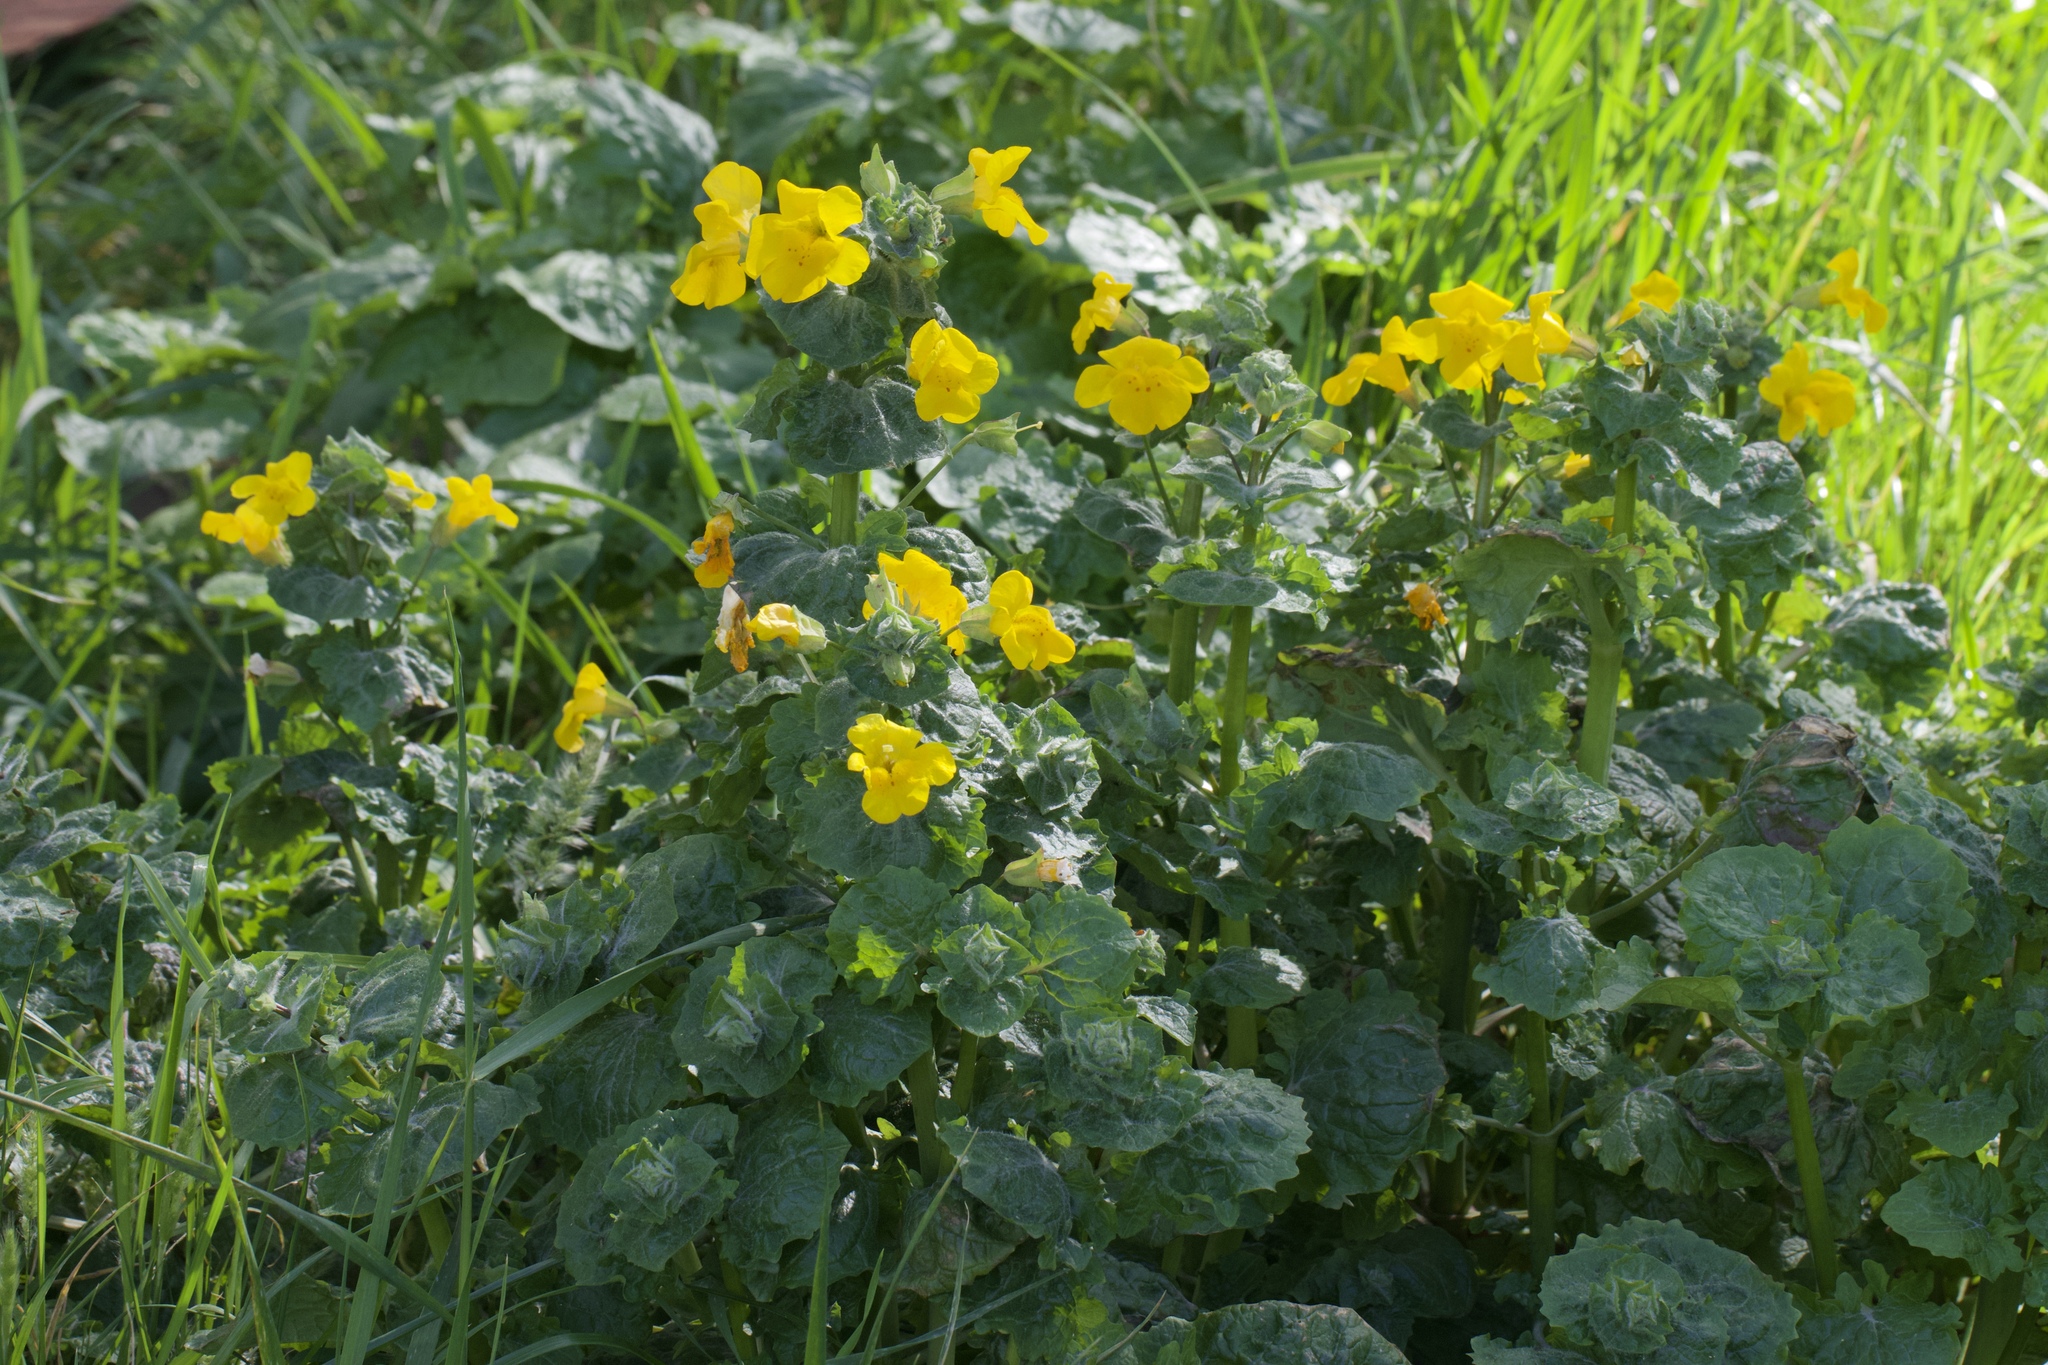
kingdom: Plantae
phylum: Tracheophyta
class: Magnoliopsida
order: Lamiales
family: Phrymaceae
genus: Erythranthe
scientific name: Erythranthe guttata
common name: Monkeyflower
